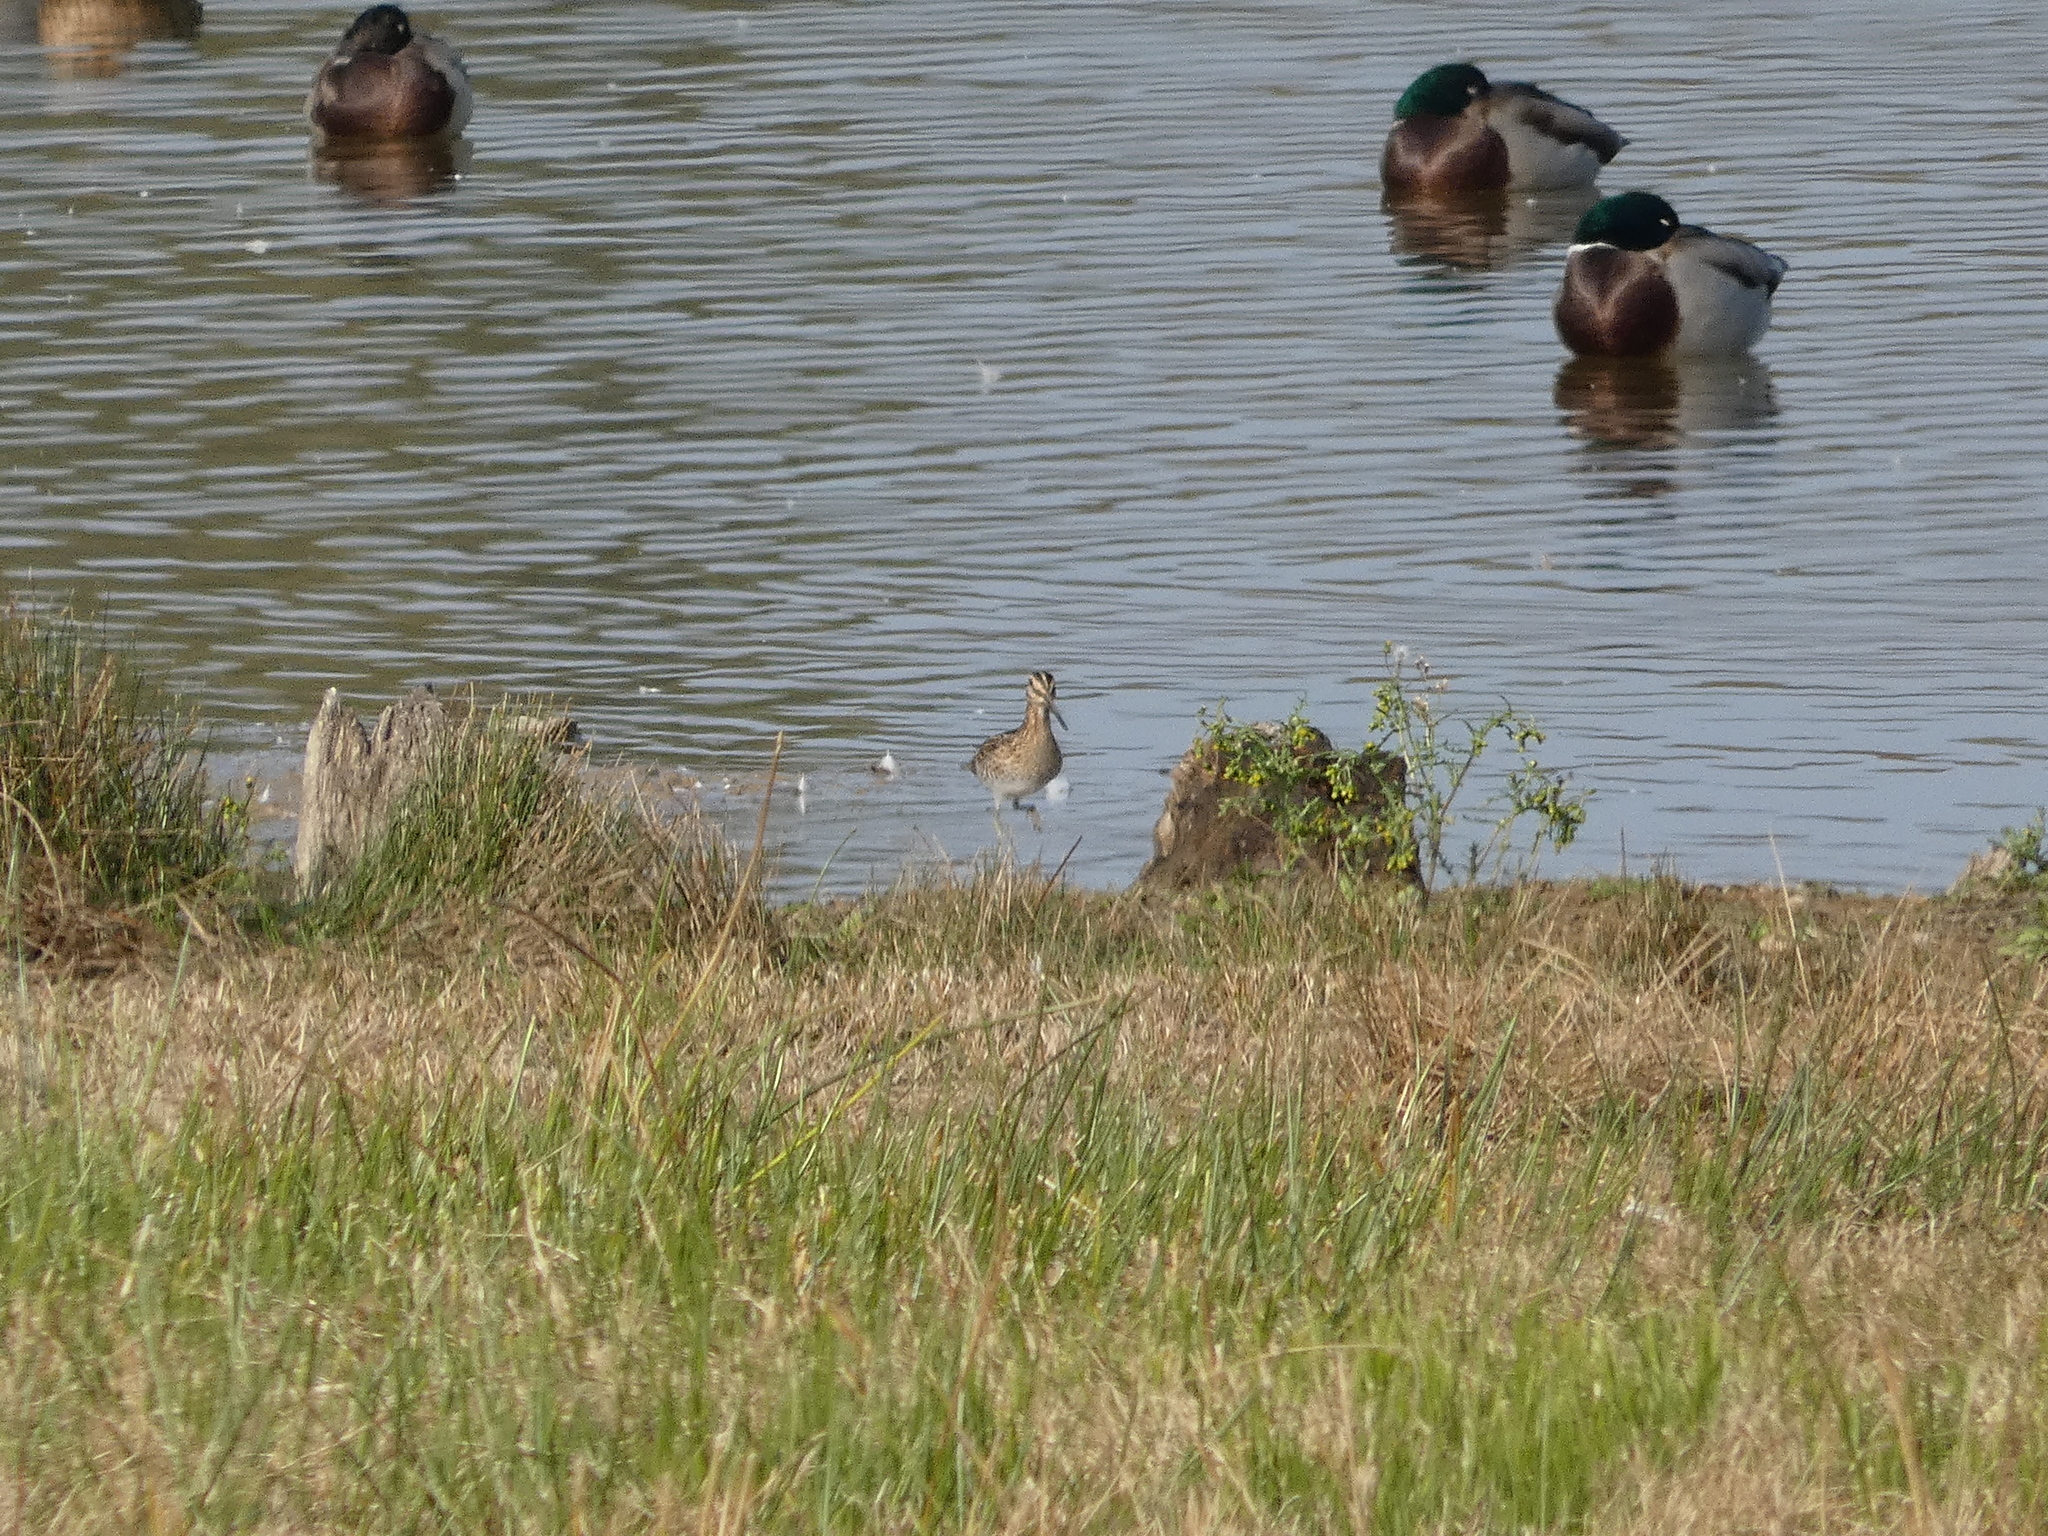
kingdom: Animalia
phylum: Chordata
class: Aves
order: Charadriiformes
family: Scolopacidae
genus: Gallinago
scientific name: Gallinago gallinago
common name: Common snipe
